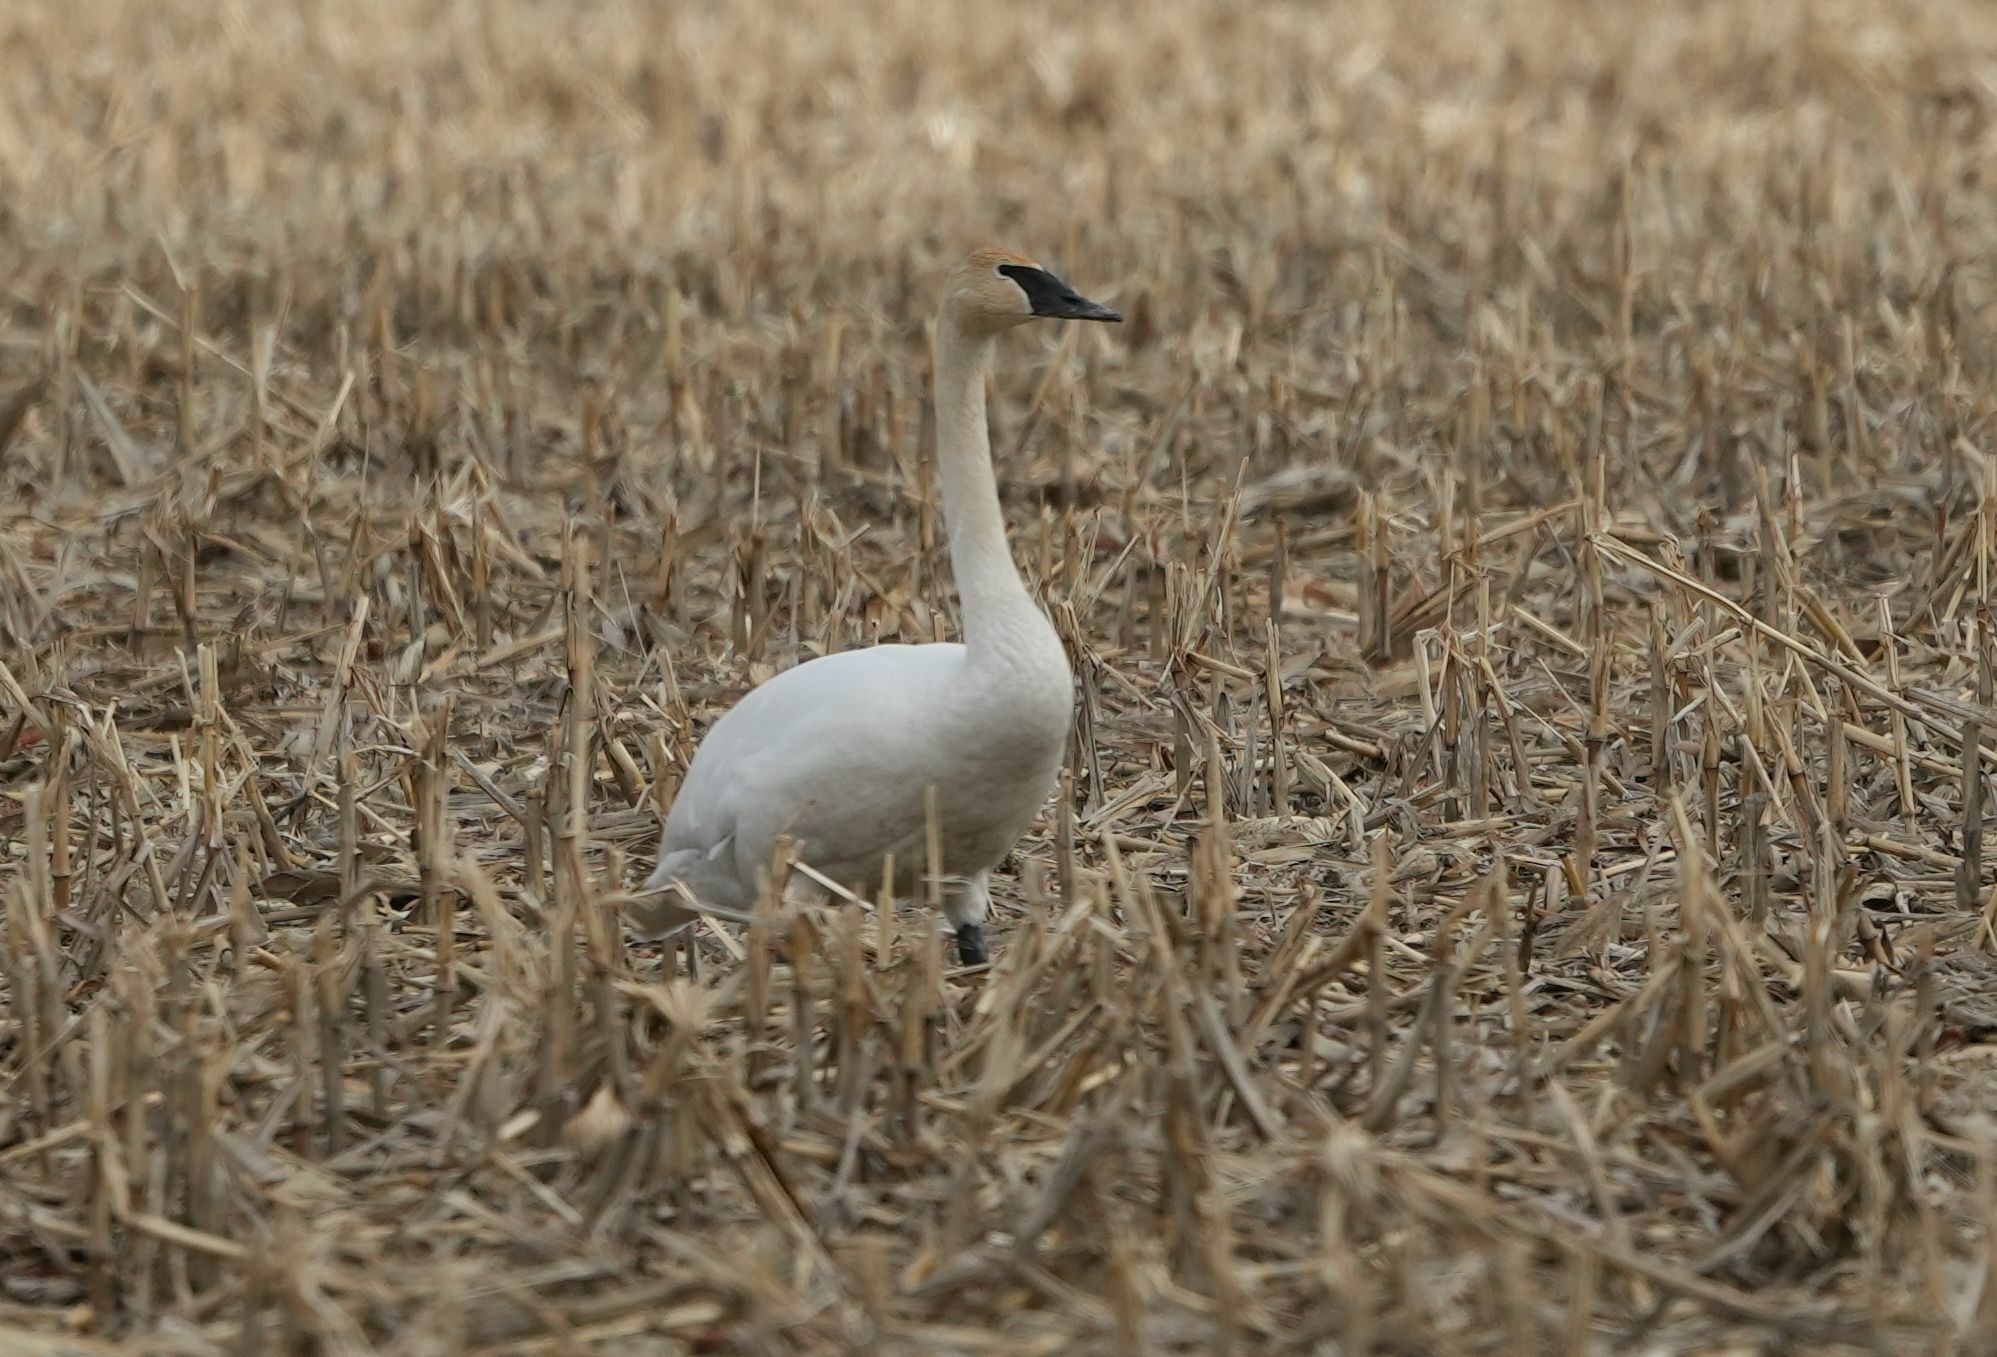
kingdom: Animalia
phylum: Chordata
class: Aves
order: Anseriformes
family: Anatidae
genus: Cygnus
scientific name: Cygnus buccinator
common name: Trumpeter swan
